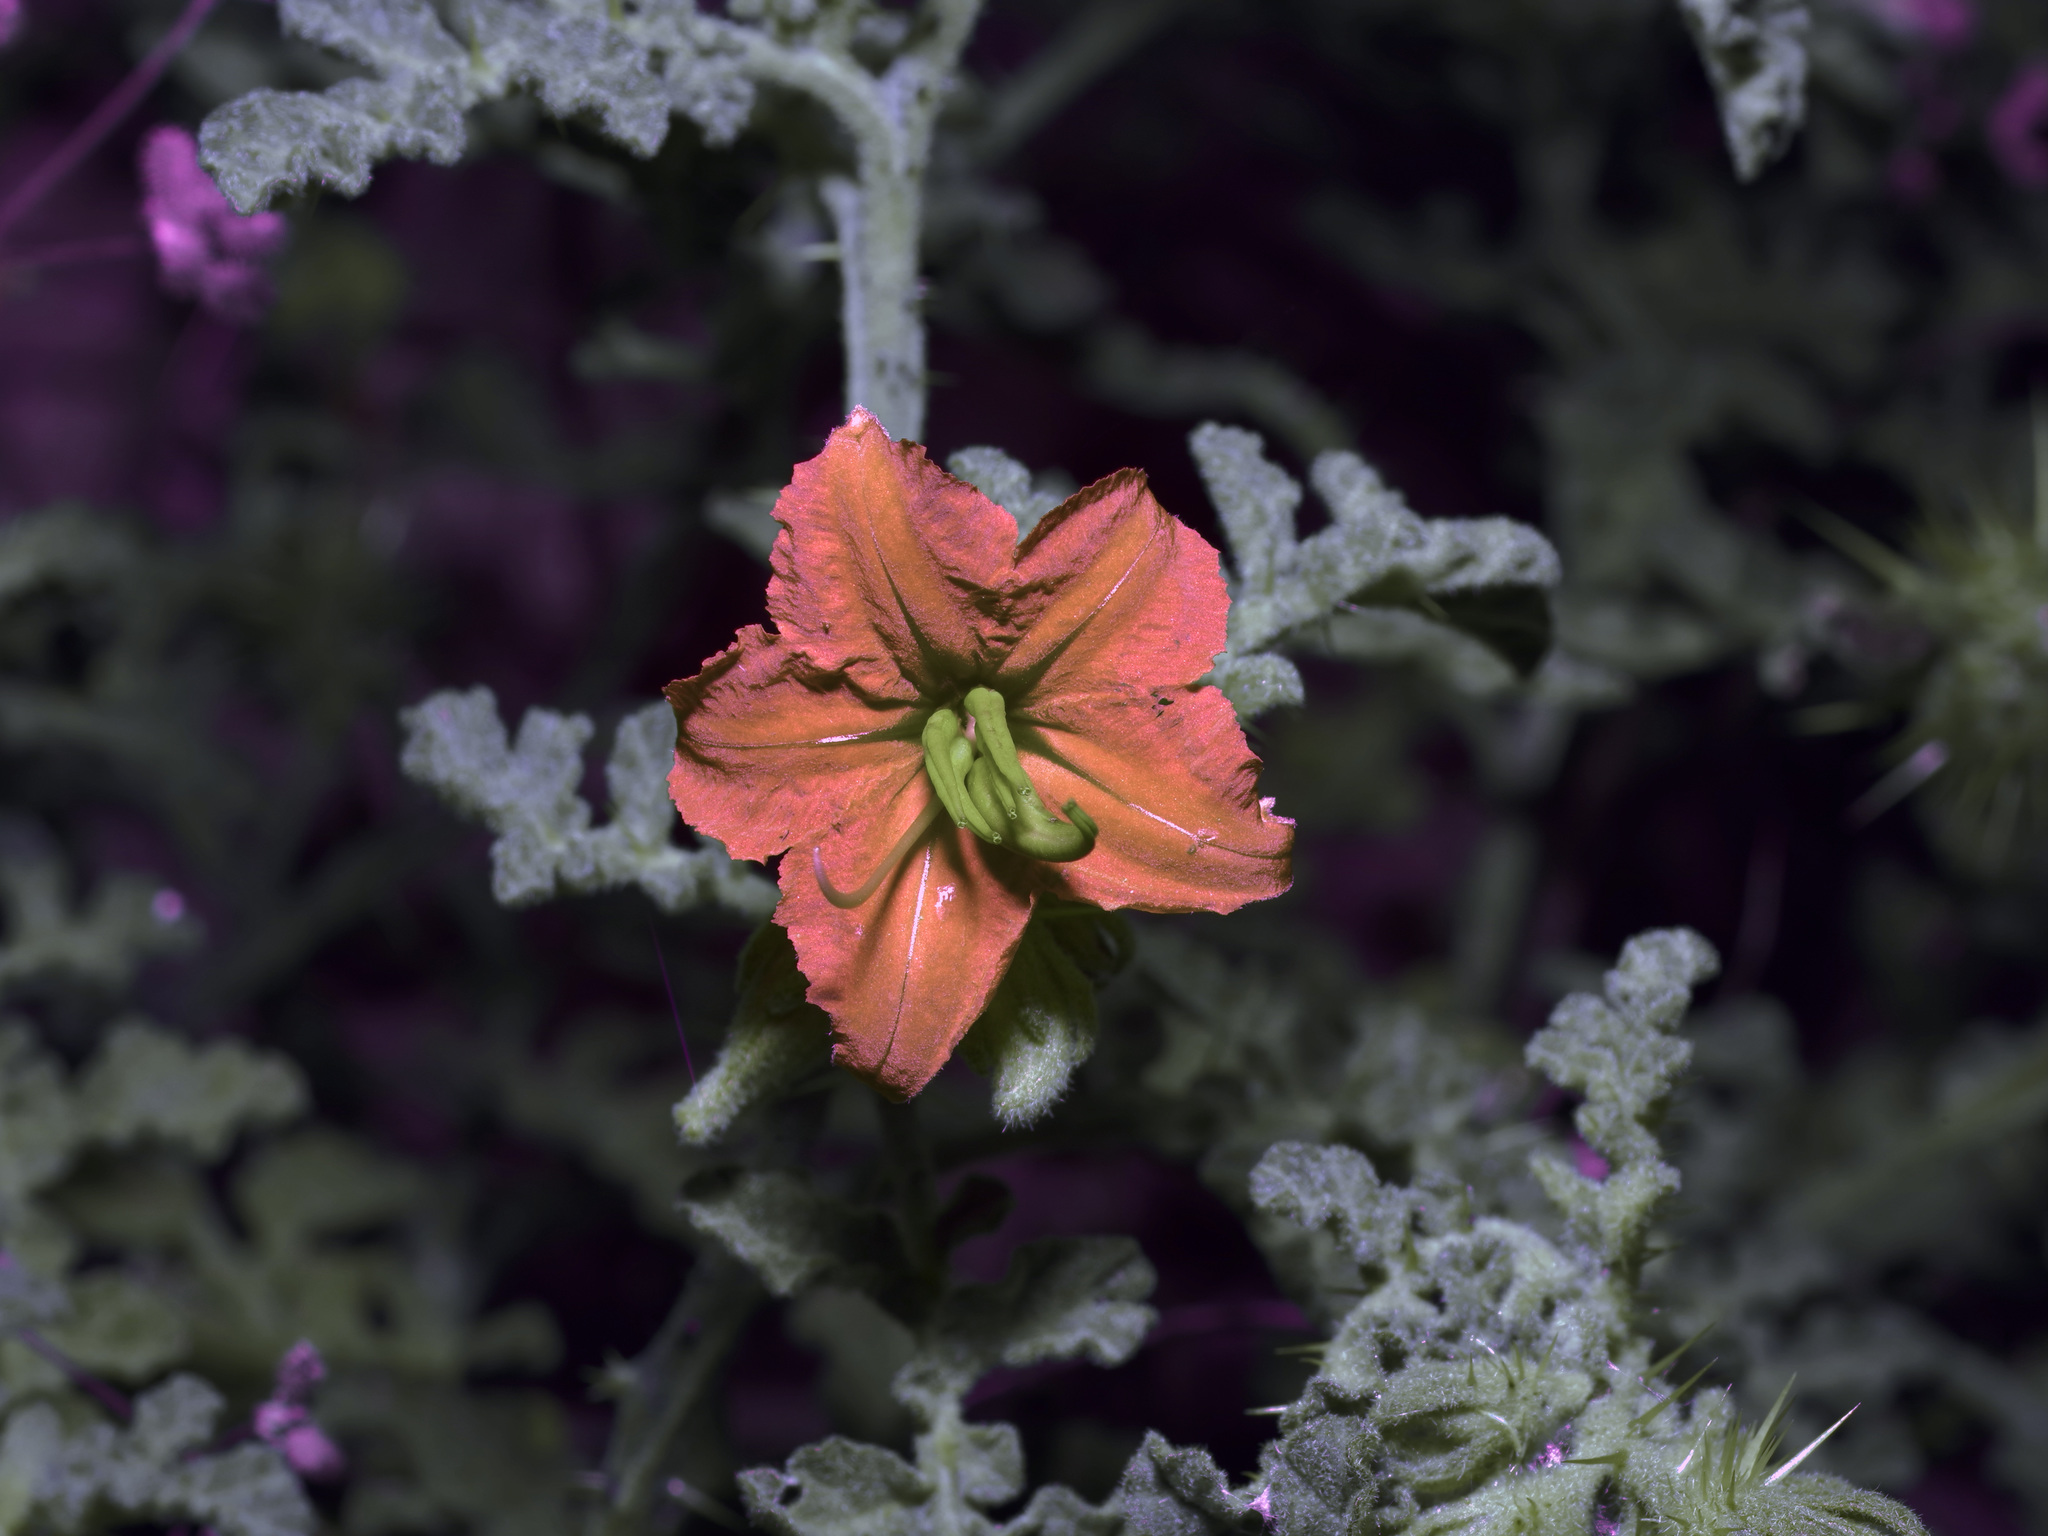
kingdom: Plantae
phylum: Tracheophyta
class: Magnoliopsida
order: Solanales
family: Solanaceae
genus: Solanum
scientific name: Solanum angustifolium
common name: Buffalobur nightshade
